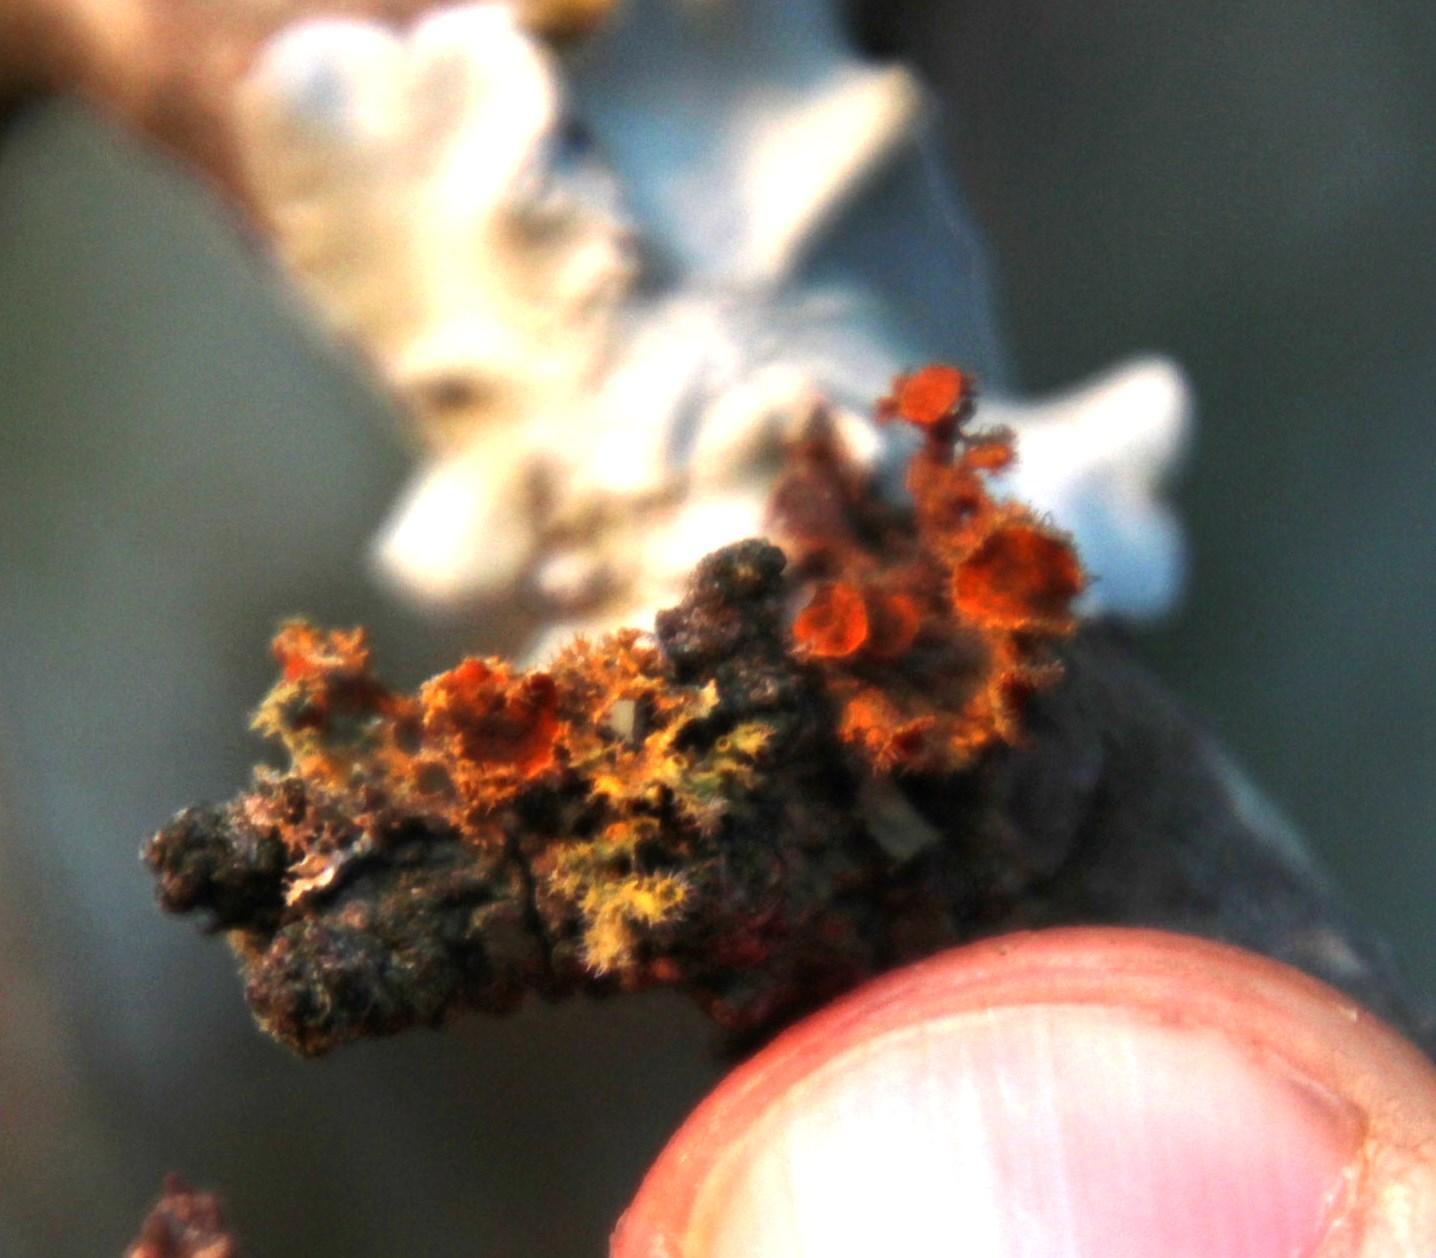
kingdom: Fungi
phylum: Ascomycota
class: Lecanoromycetes
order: Teloschistales
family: Teloschistaceae
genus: Niorma
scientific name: Niorma chrysophthalma
